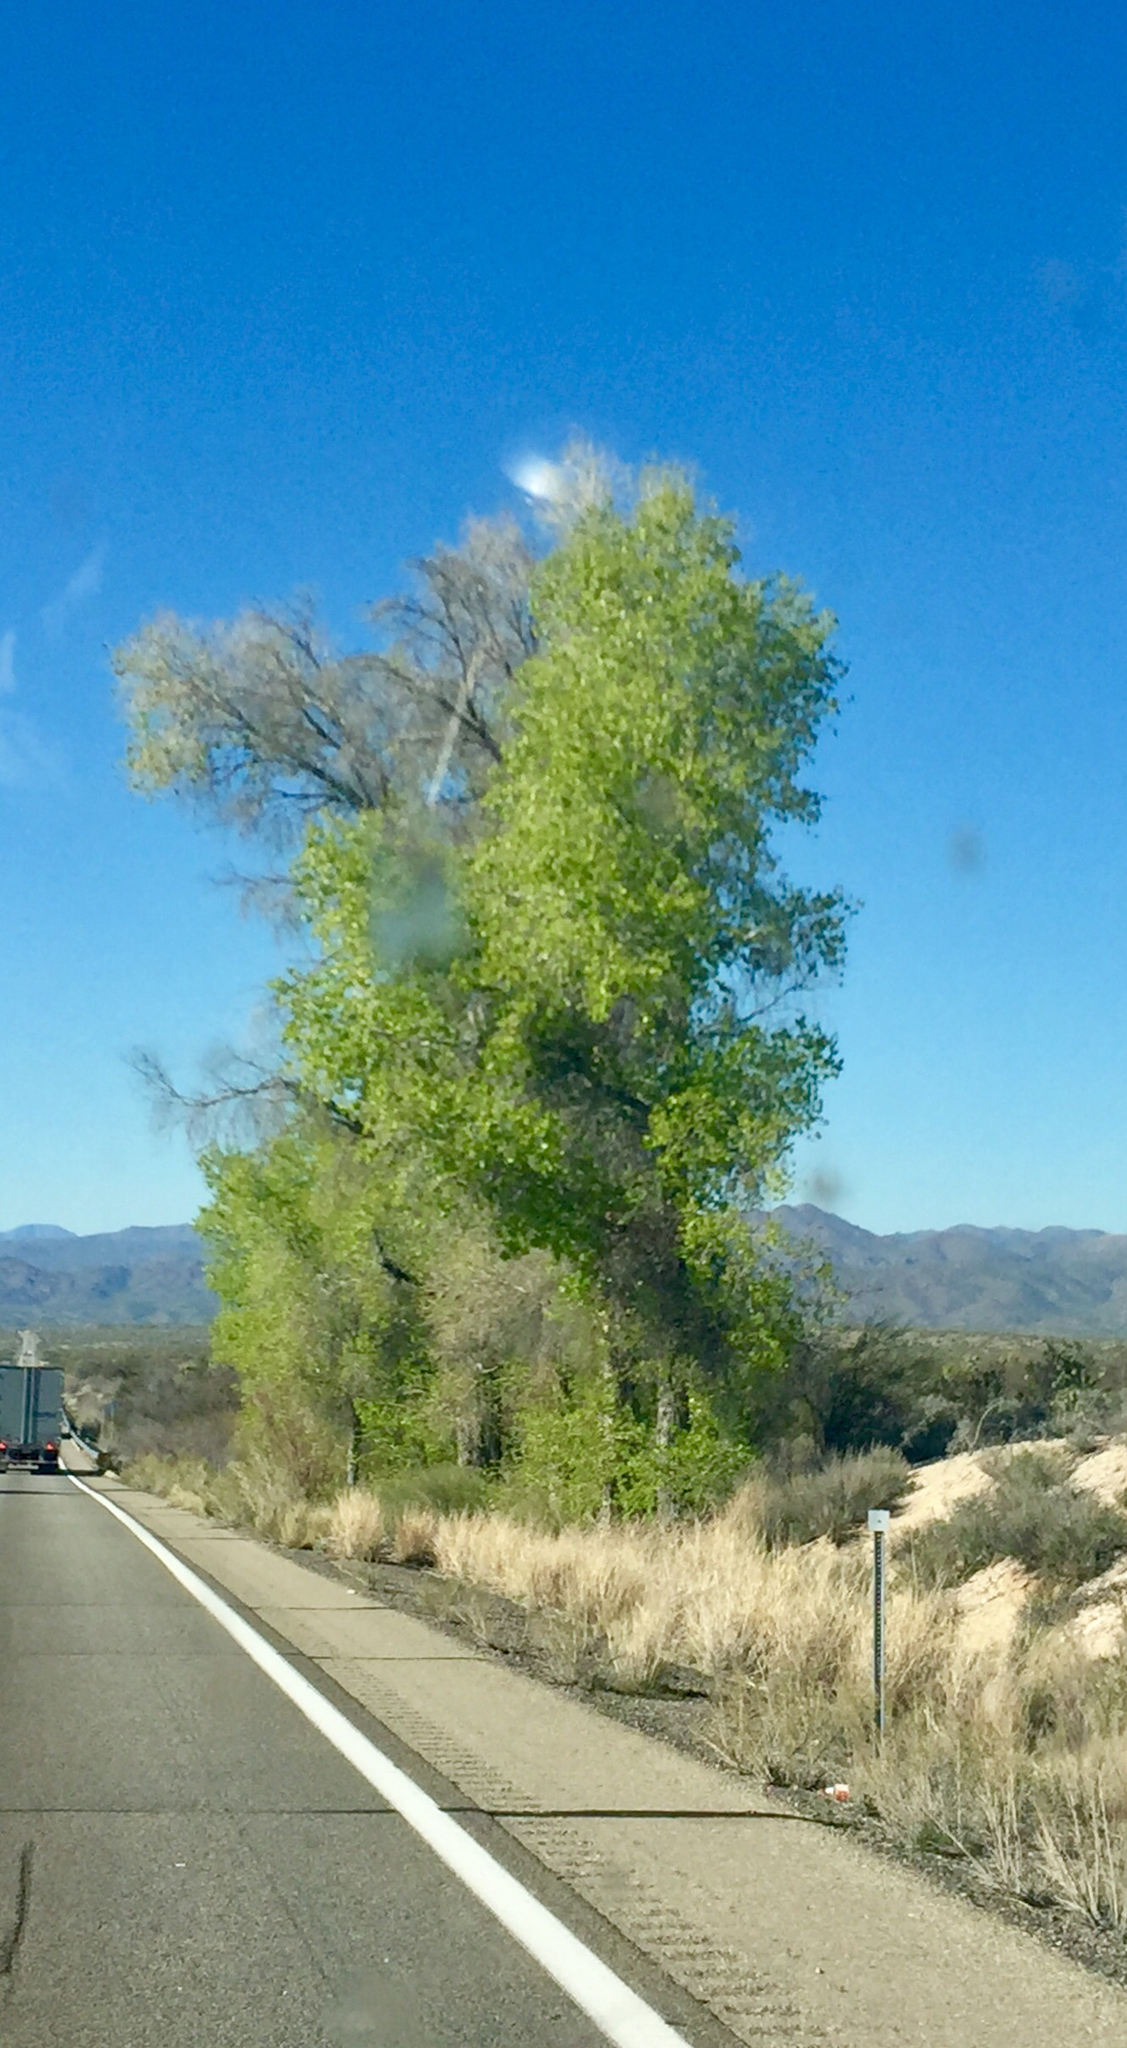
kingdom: Plantae
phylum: Tracheophyta
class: Magnoliopsida
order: Malpighiales
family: Salicaceae
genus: Populus
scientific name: Populus fremontii
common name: Fremont's cottonwood
